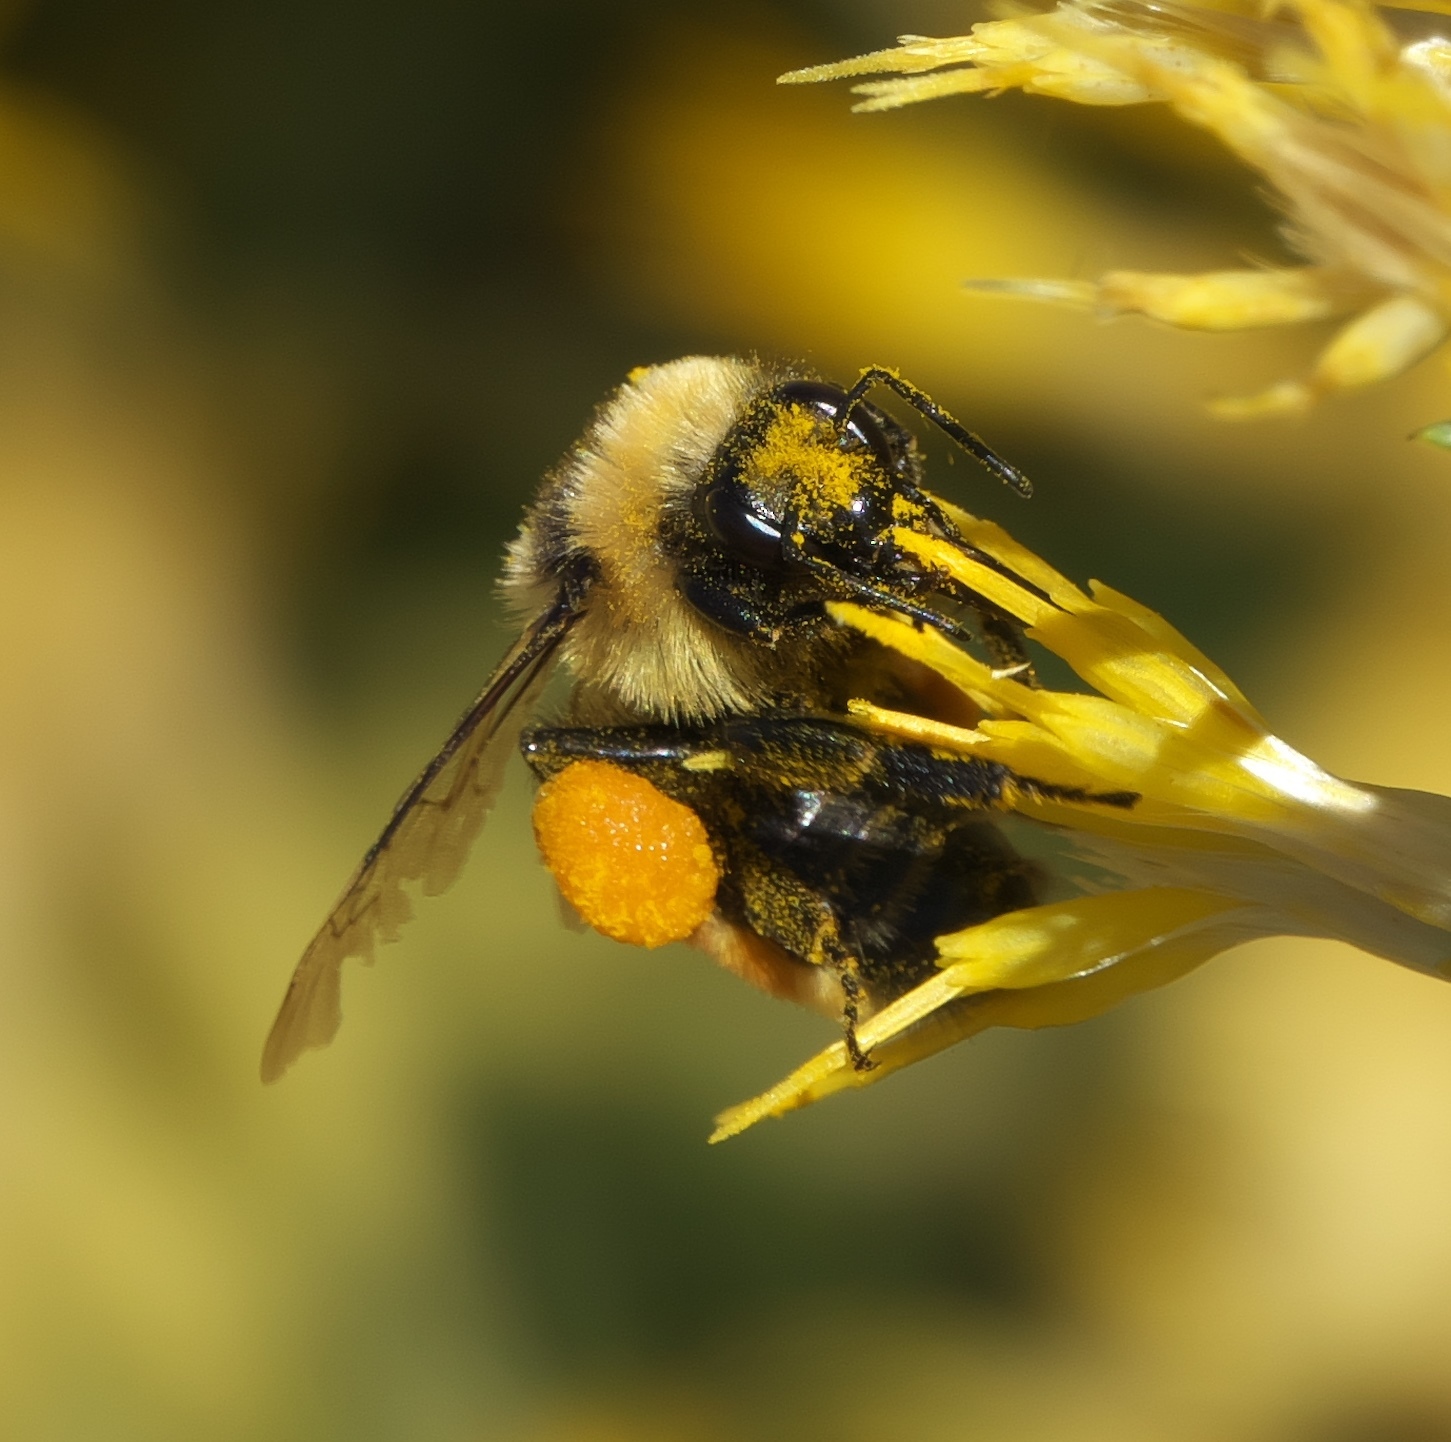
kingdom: Animalia
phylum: Arthropoda
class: Insecta
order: Hymenoptera
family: Apidae
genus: Bombus
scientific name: Bombus rufocinctus
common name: Red-belted bumble bee
